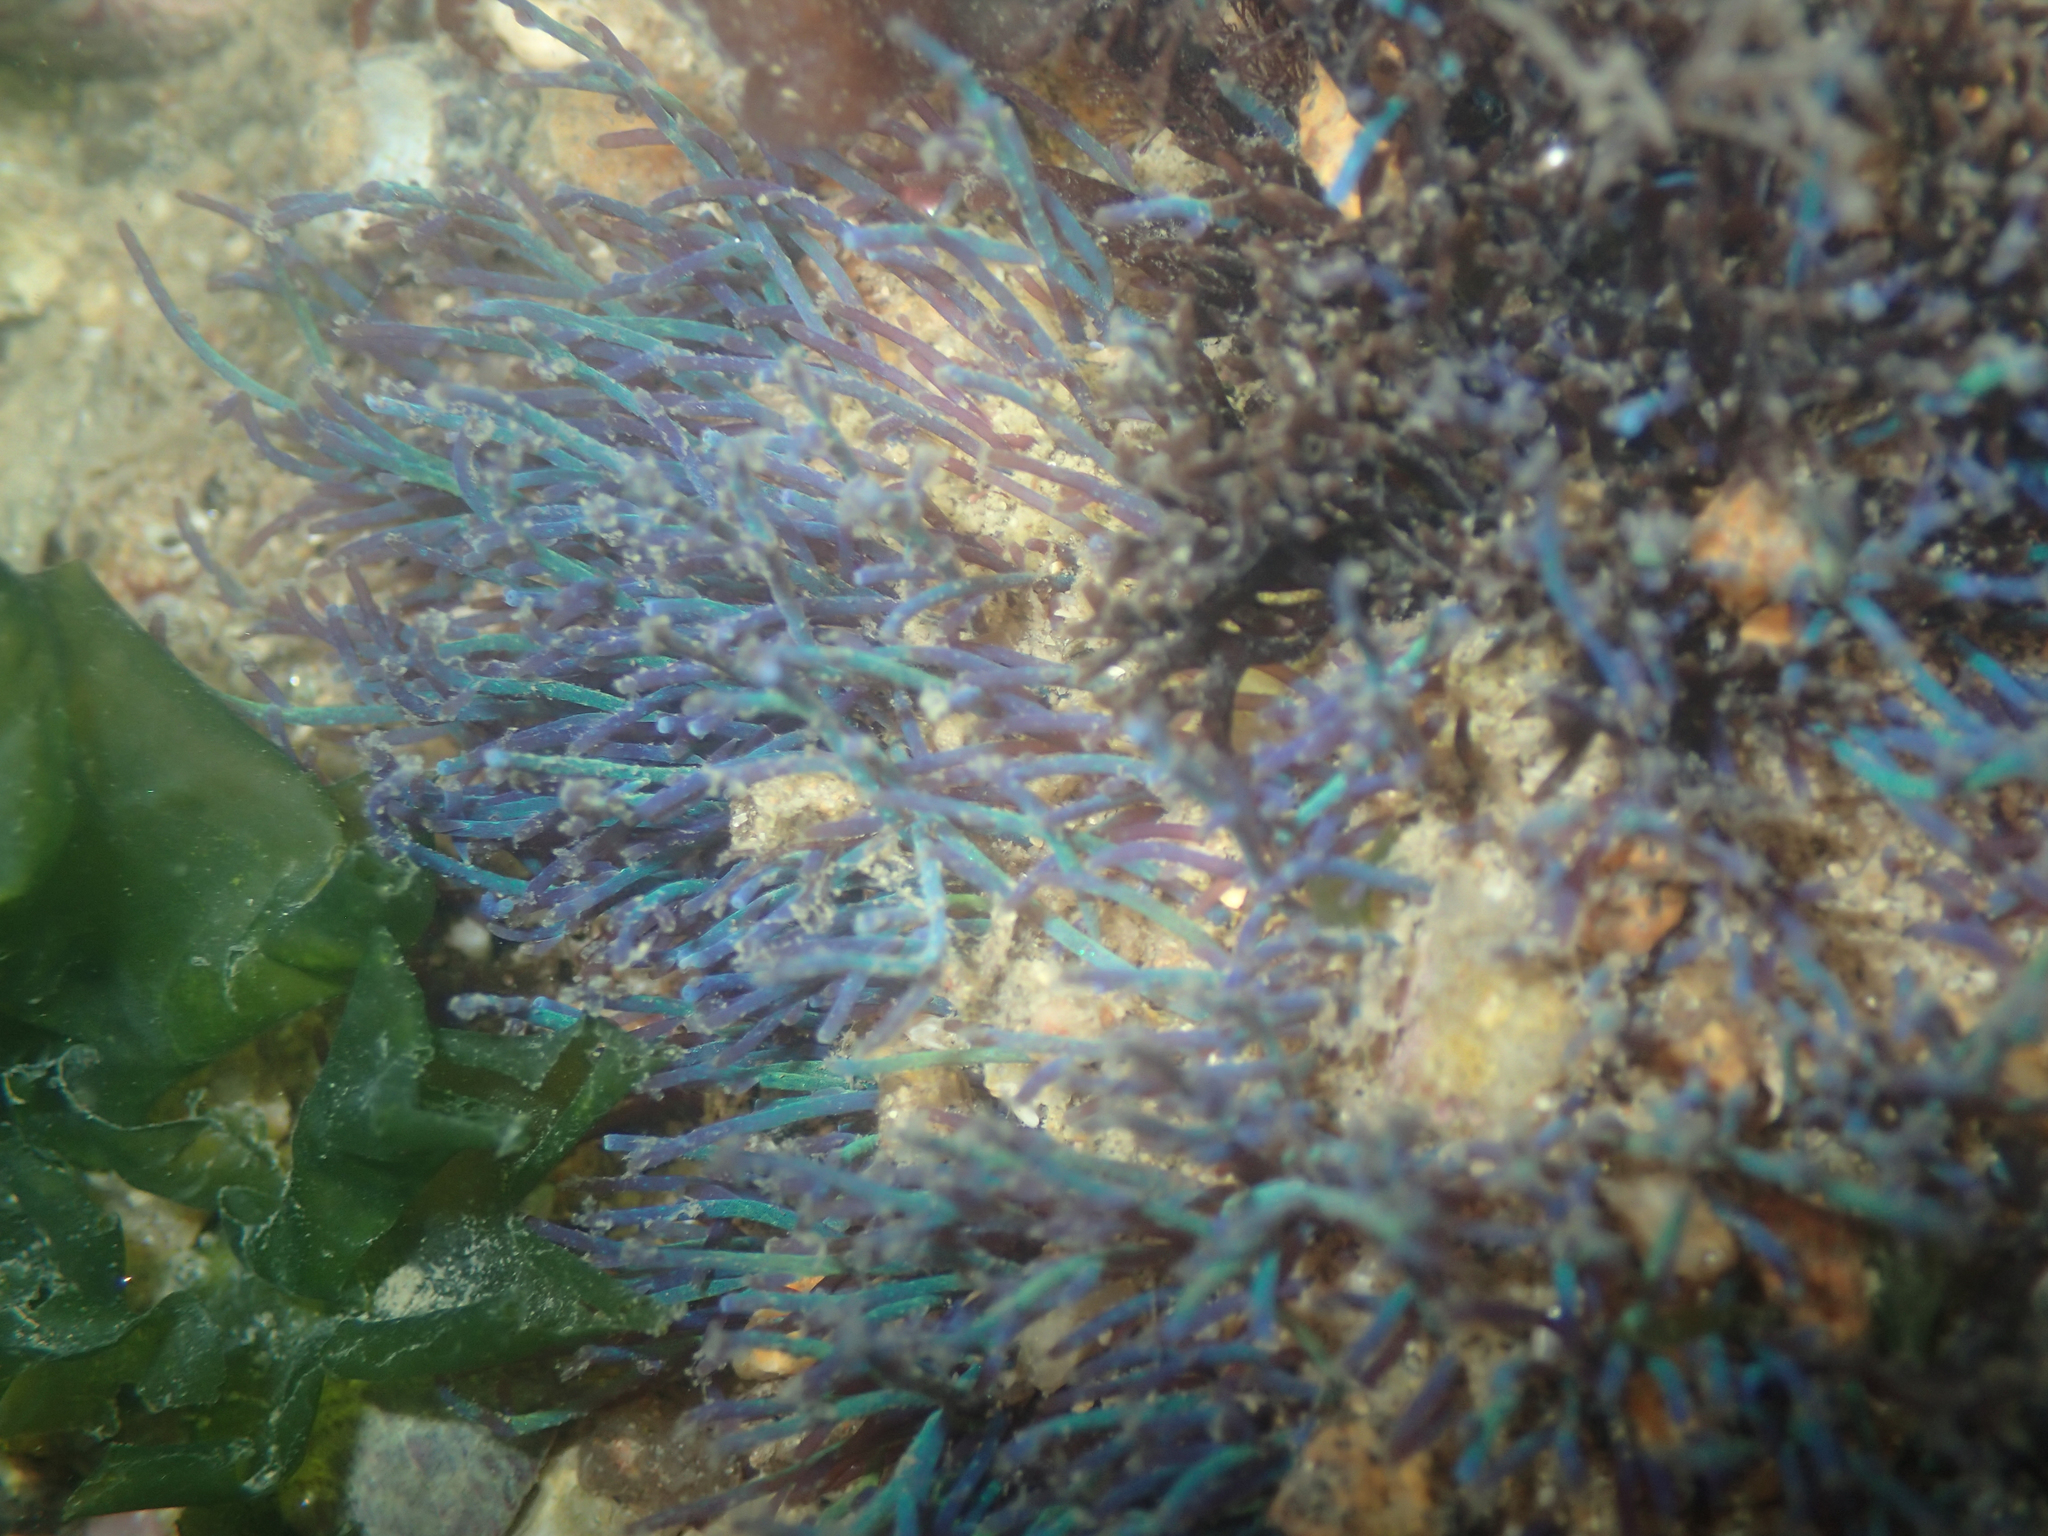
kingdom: Plantae
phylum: Rhodophyta
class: Florideophyceae
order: Ceramiales
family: Rhodomelaceae
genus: Chondria
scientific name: Chondria coerulescens
